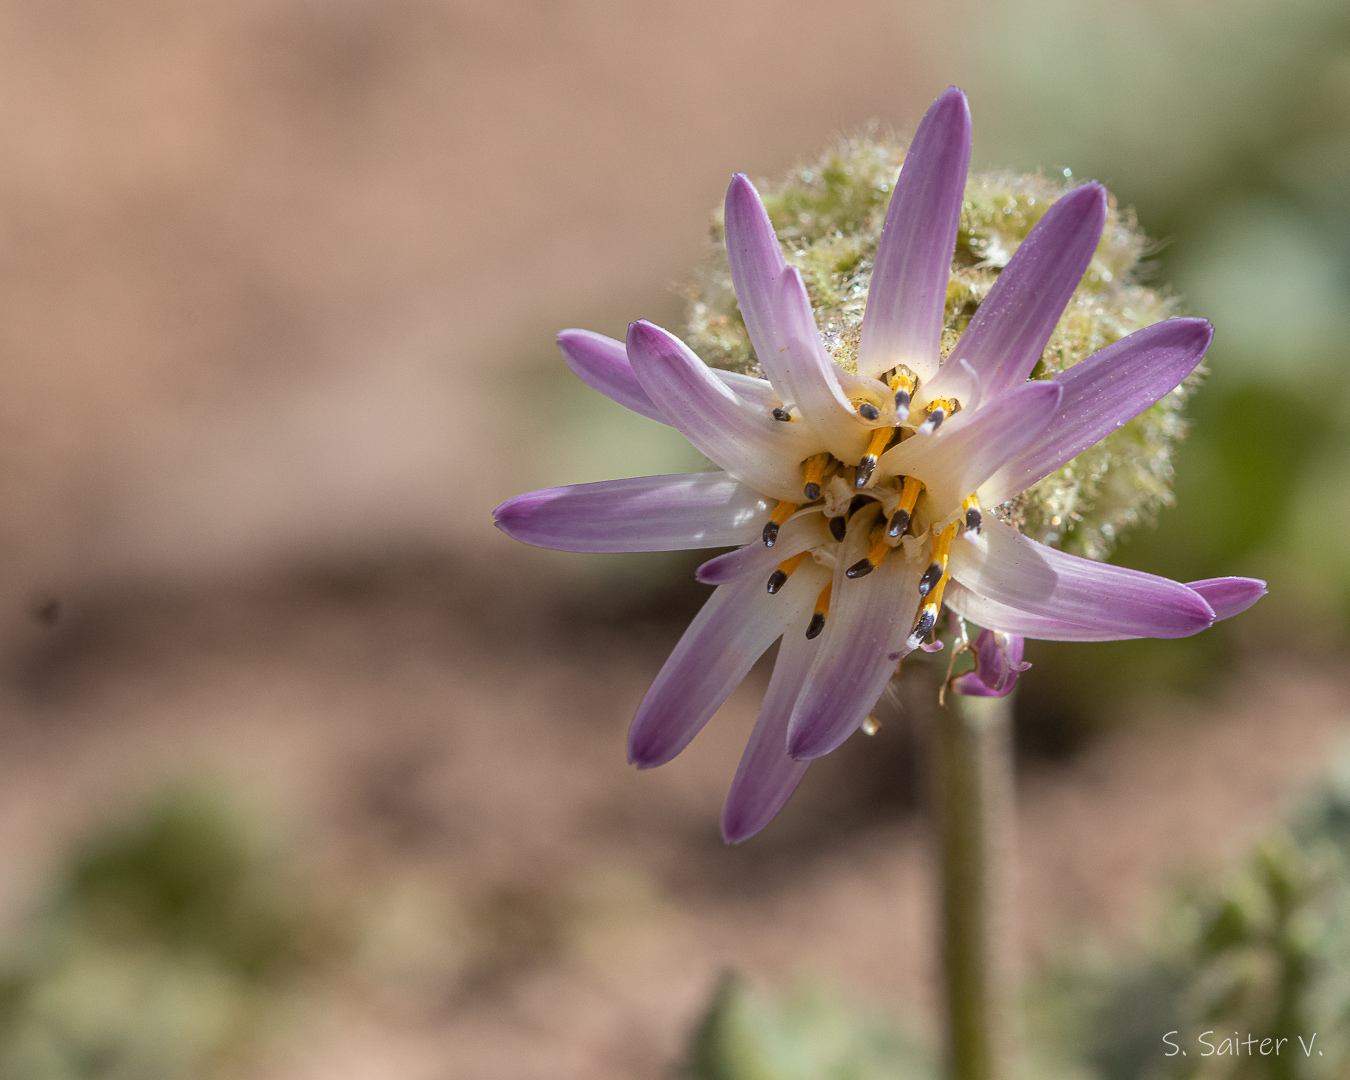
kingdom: Plantae
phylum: Tracheophyta
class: Magnoliopsida
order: Asterales
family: Asteraceae
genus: Perezia
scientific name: Perezia megalantha
